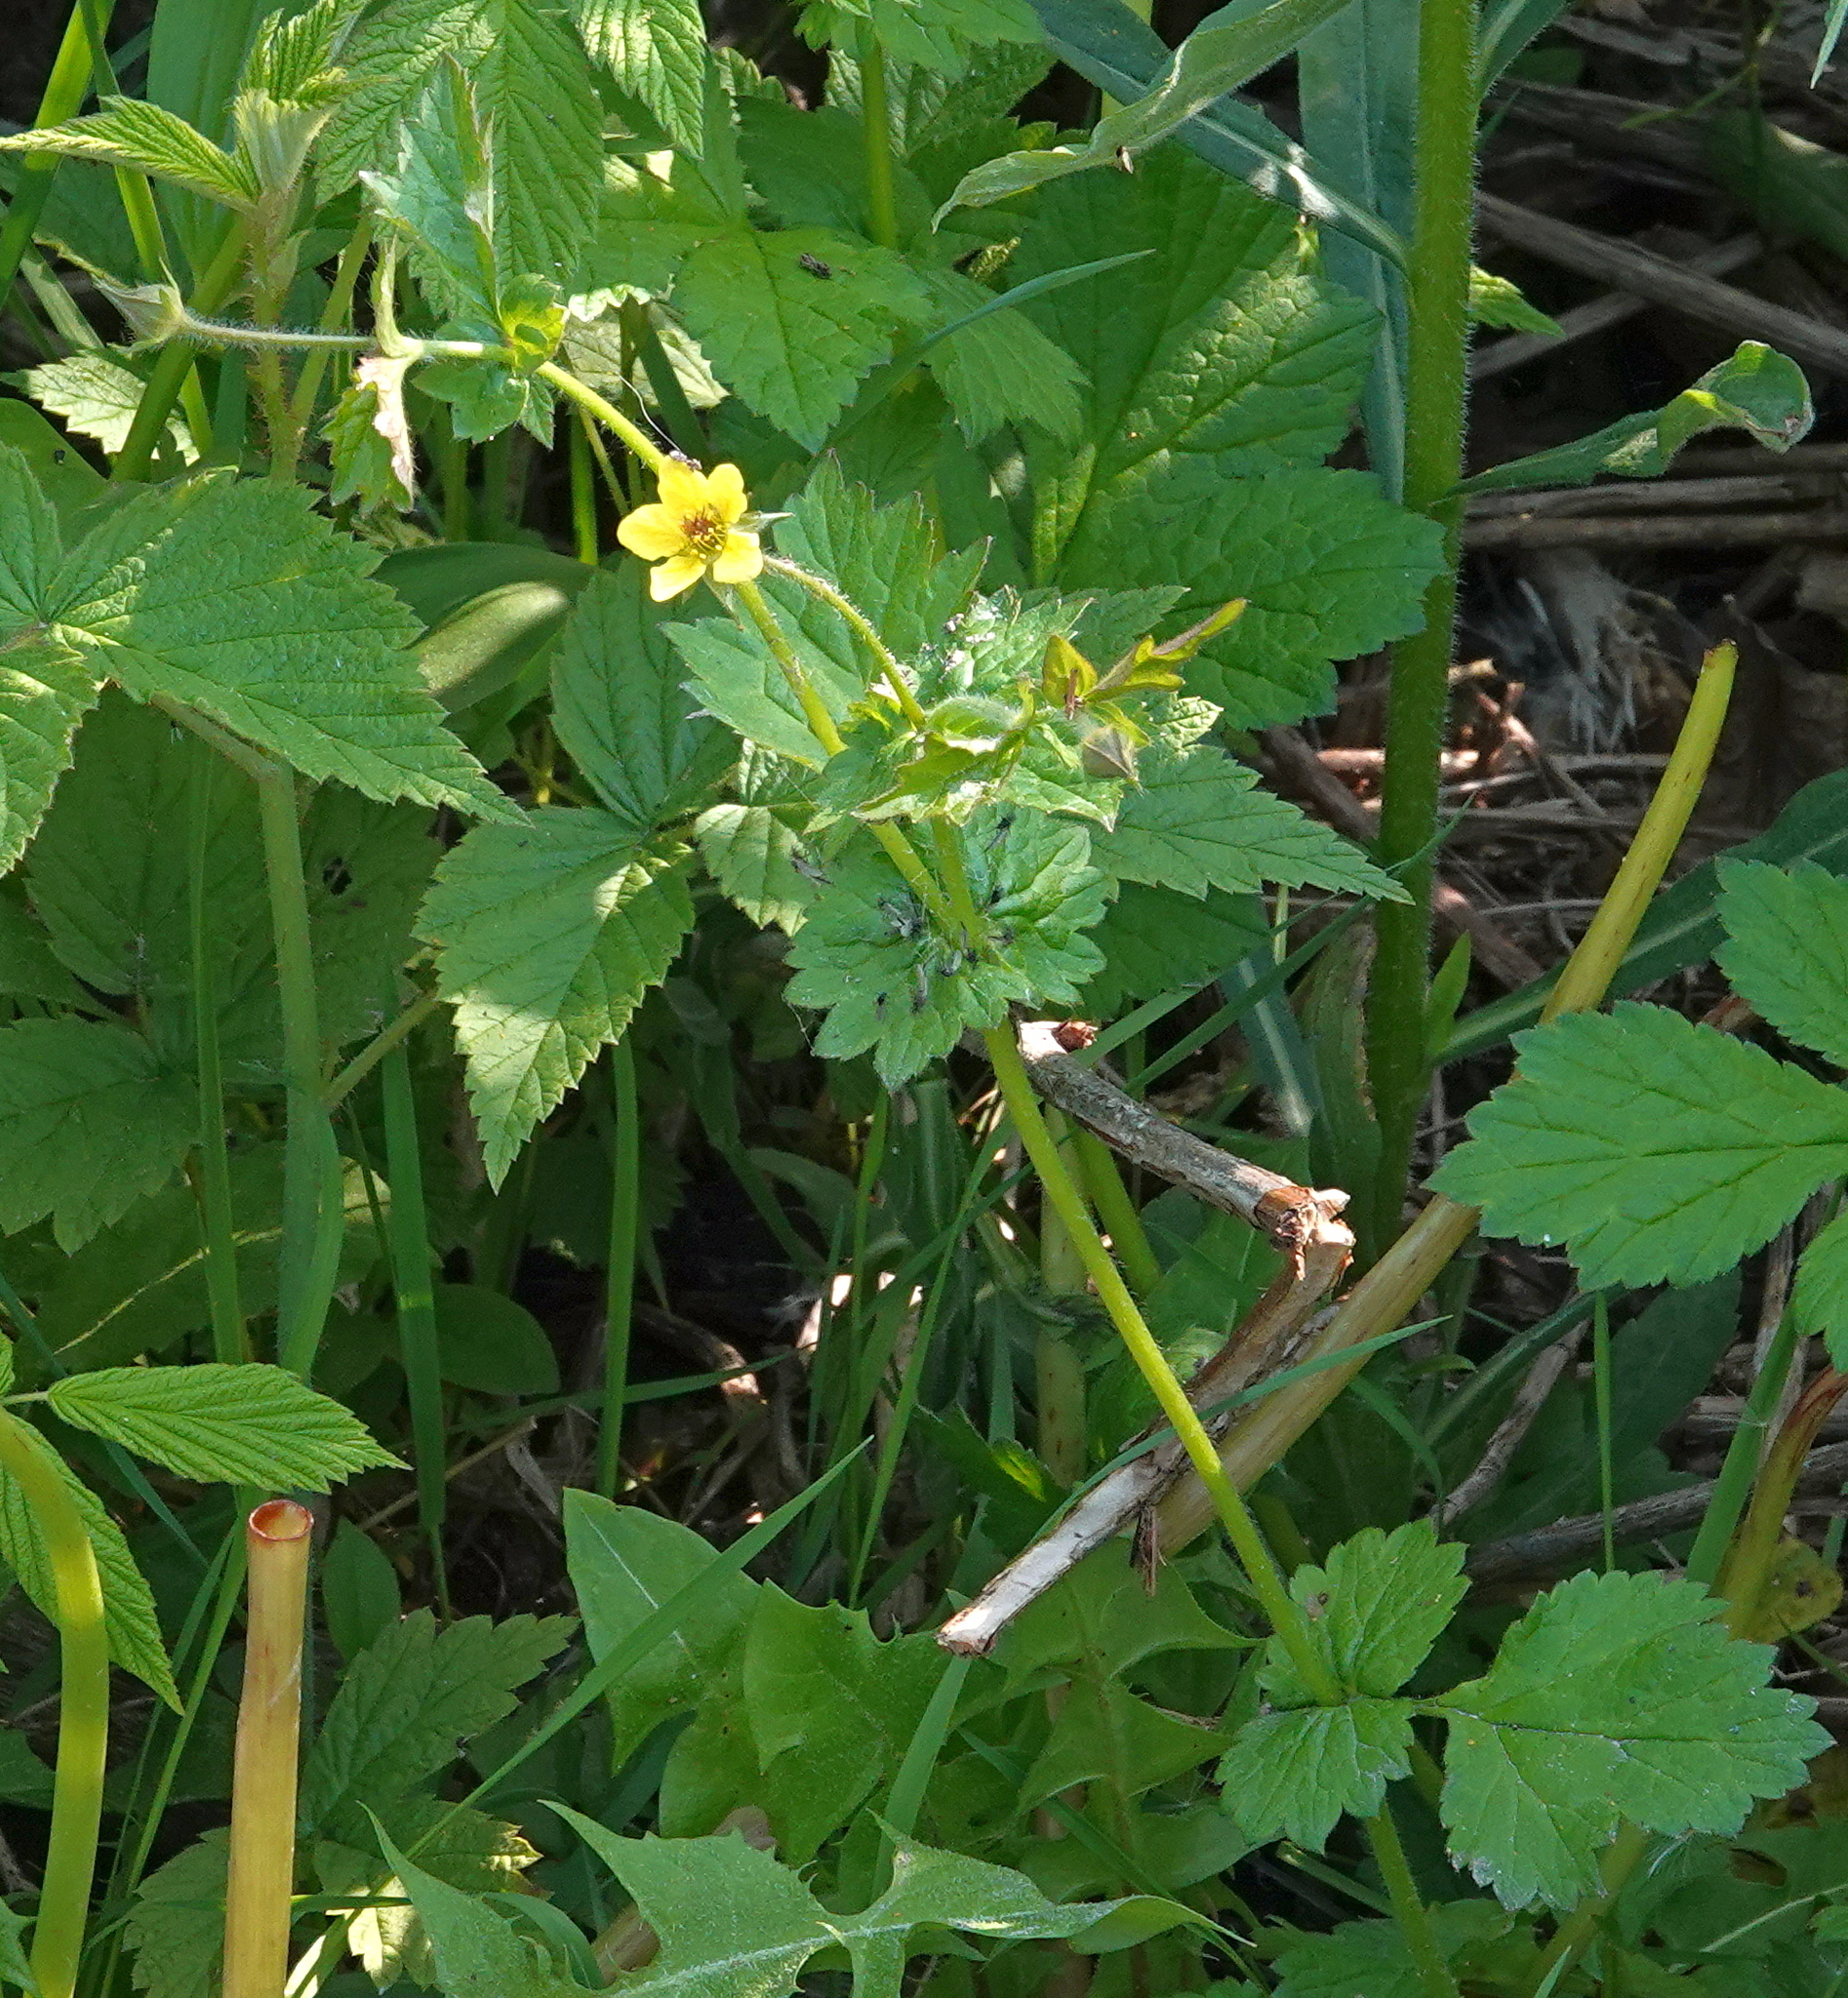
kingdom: Plantae
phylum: Tracheophyta
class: Magnoliopsida
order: Rosales
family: Rosaceae
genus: Geum
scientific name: Geum urbanum
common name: Wood avens
